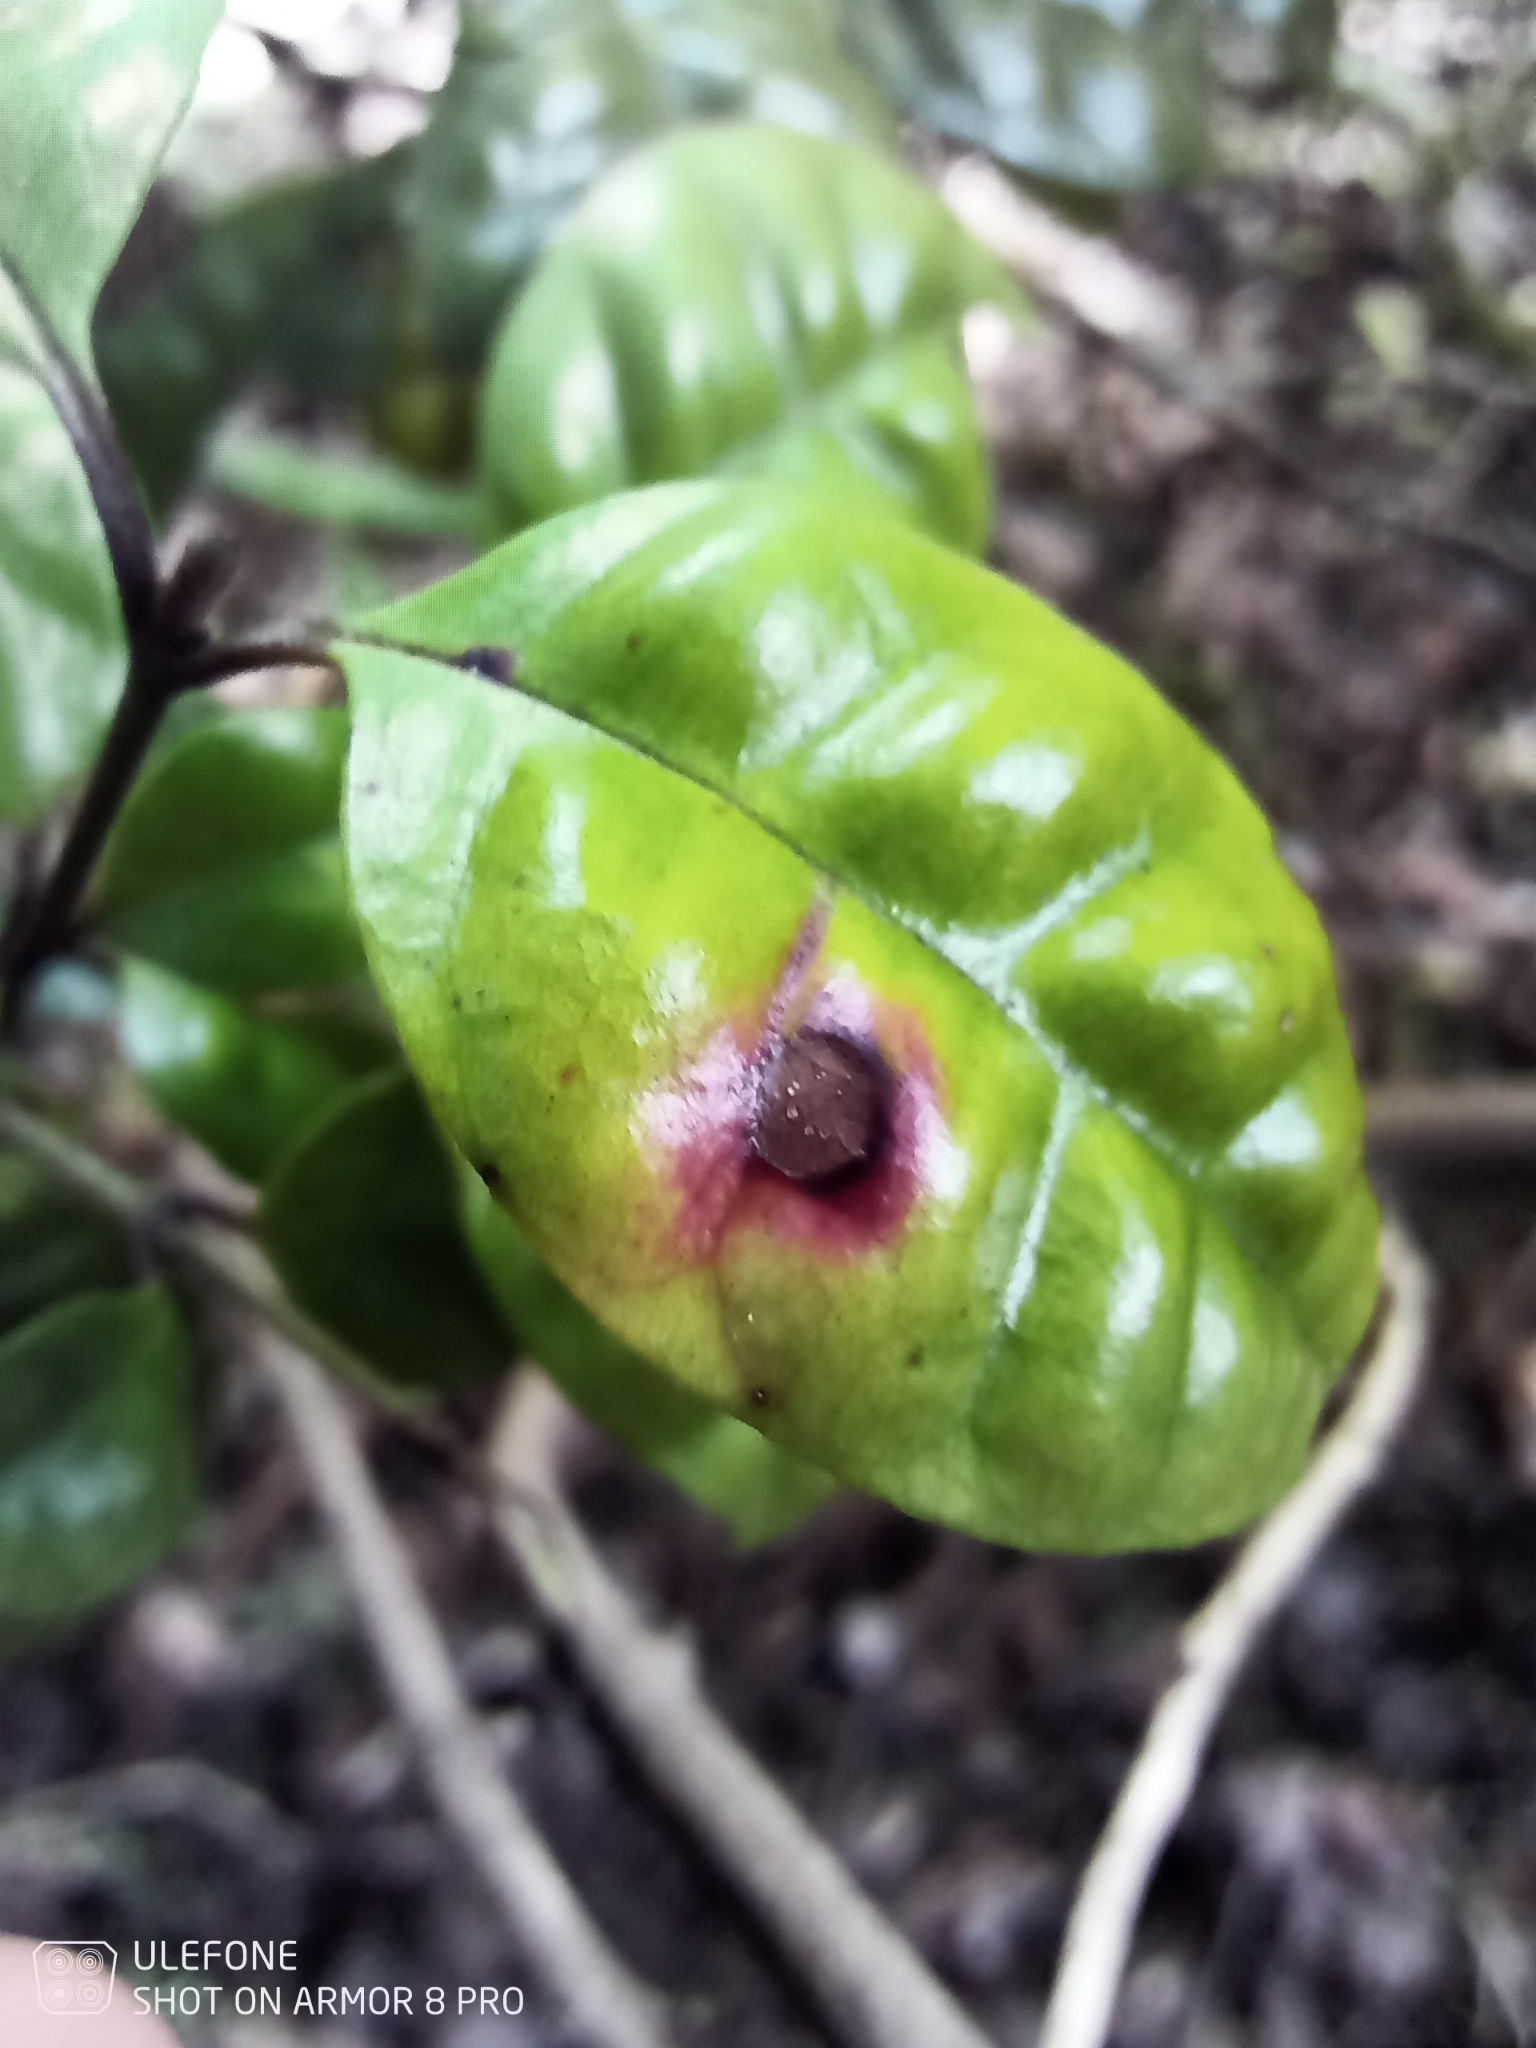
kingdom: Fungi
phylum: Basidiomycota
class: Pucciniomycetes
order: Pucciniales
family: Sphaerophragmiaceae
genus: Austropuccinia
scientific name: Austropuccinia psidii
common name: Myrtle rust
